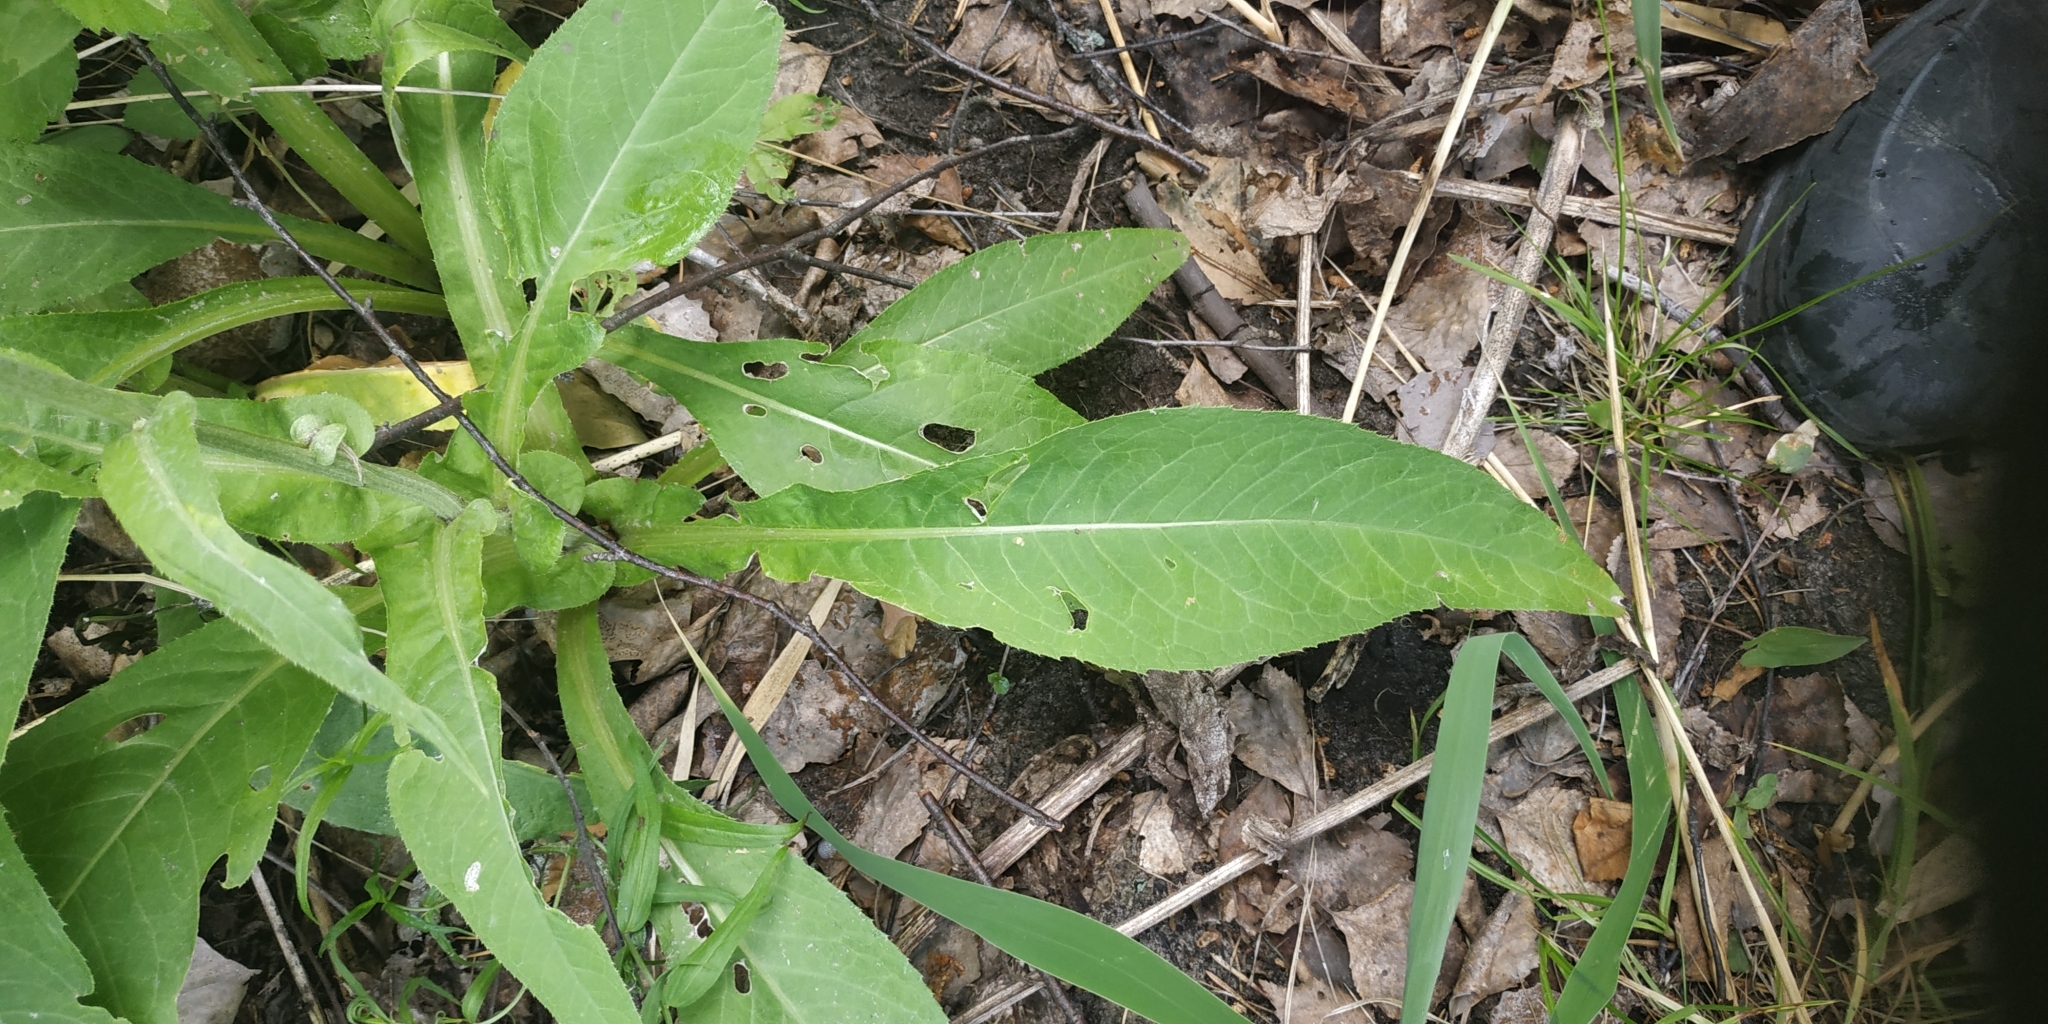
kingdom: Plantae
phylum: Tracheophyta
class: Magnoliopsida
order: Asterales
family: Asteraceae
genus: Cirsium
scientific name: Cirsium heterophyllum
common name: Melancholy thistle
